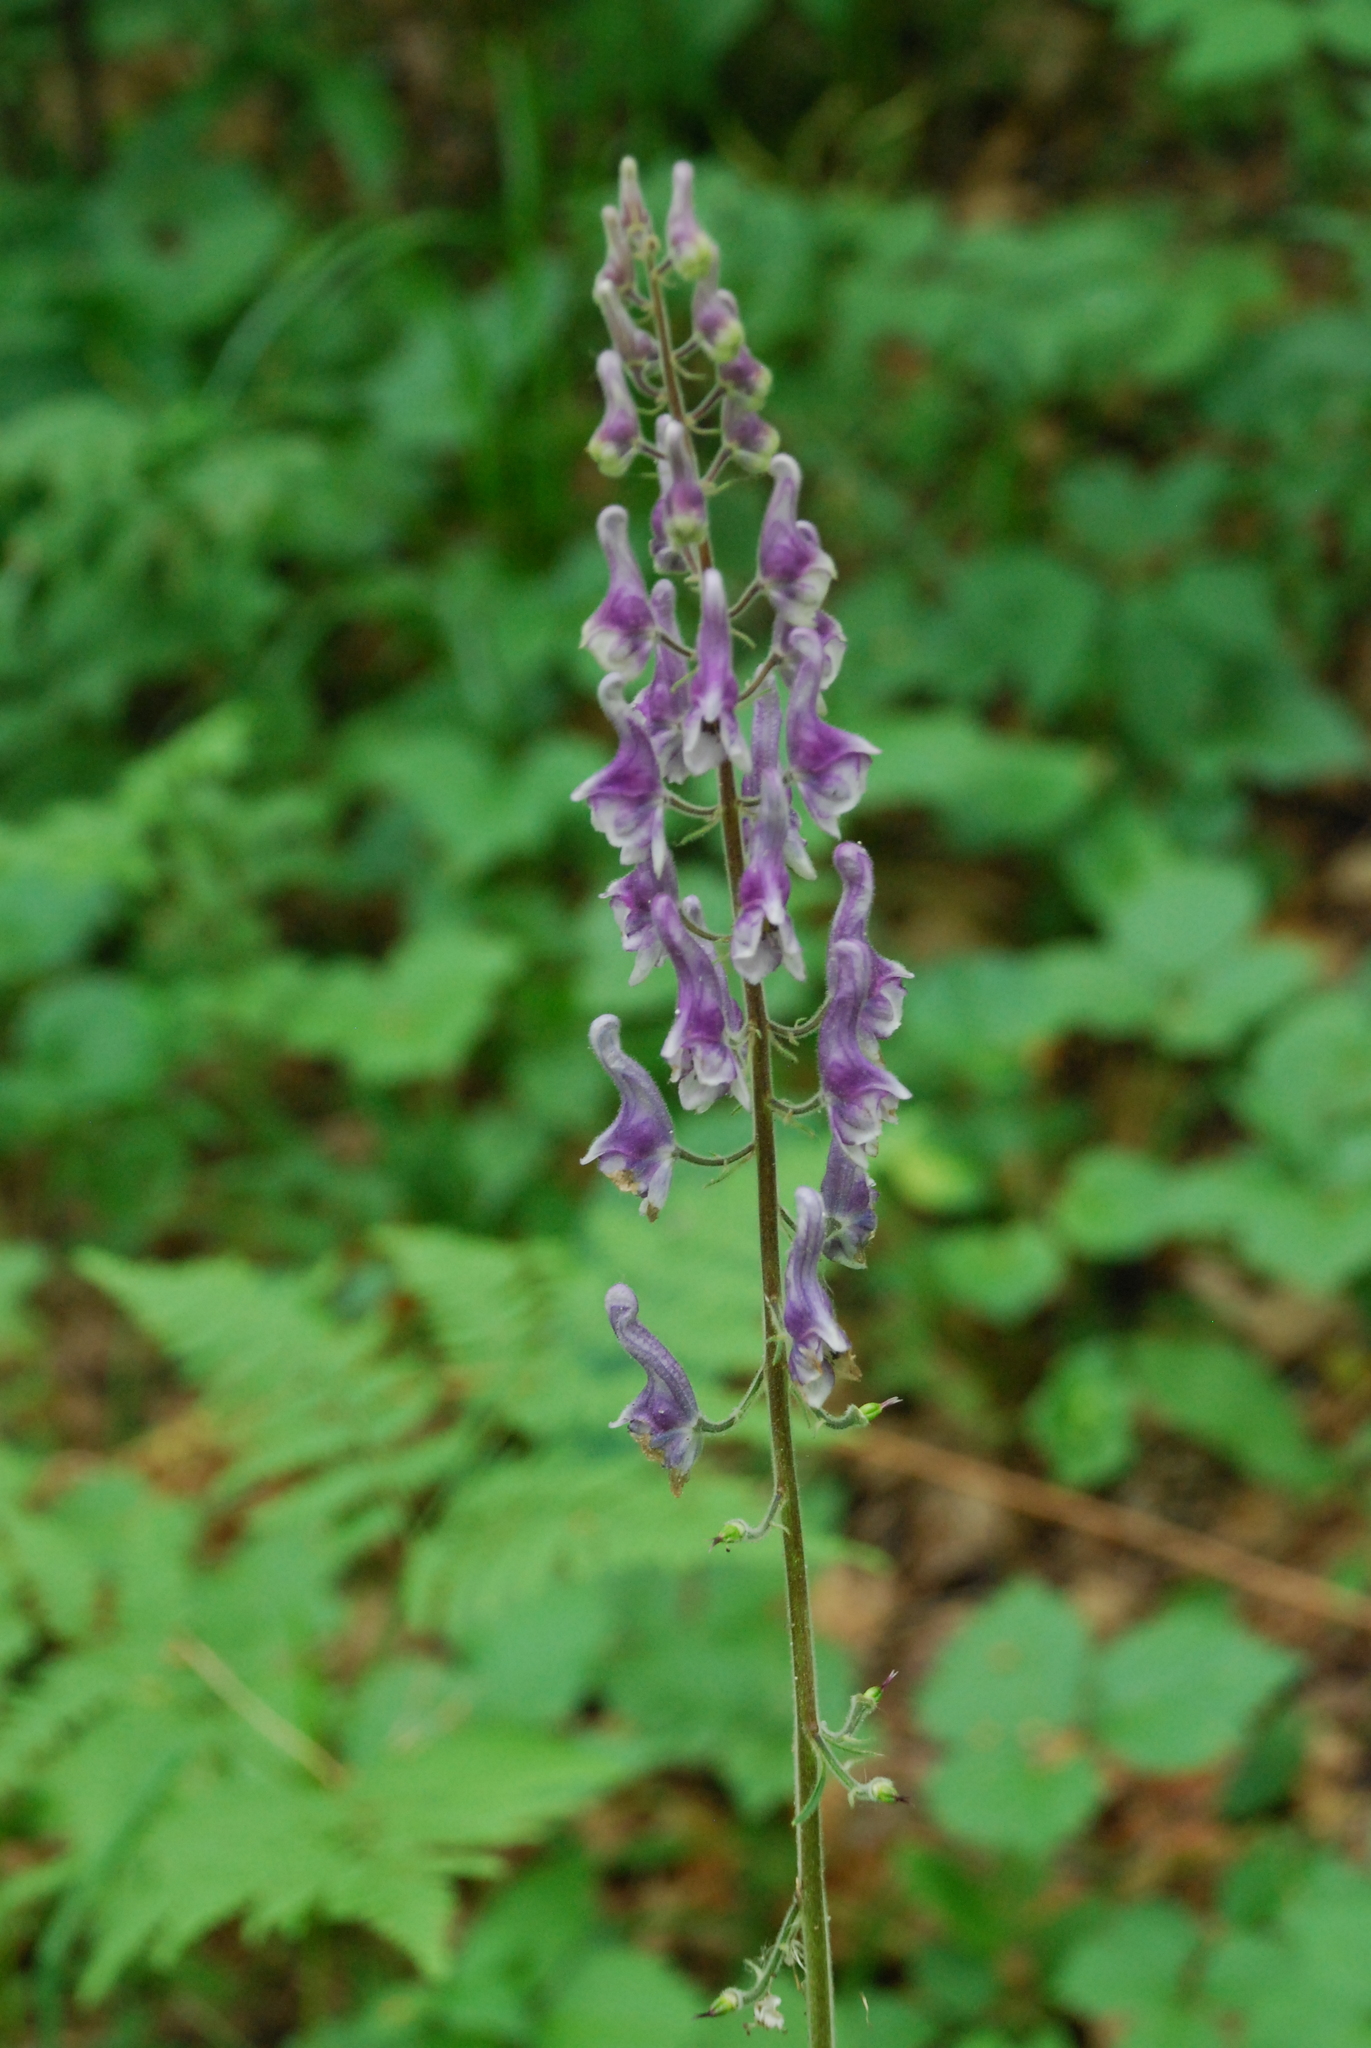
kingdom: Plantae
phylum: Tracheophyta
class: Magnoliopsida
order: Ranunculales
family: Ranunculaceae
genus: Aconitum
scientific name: Aconitum septentrionale
